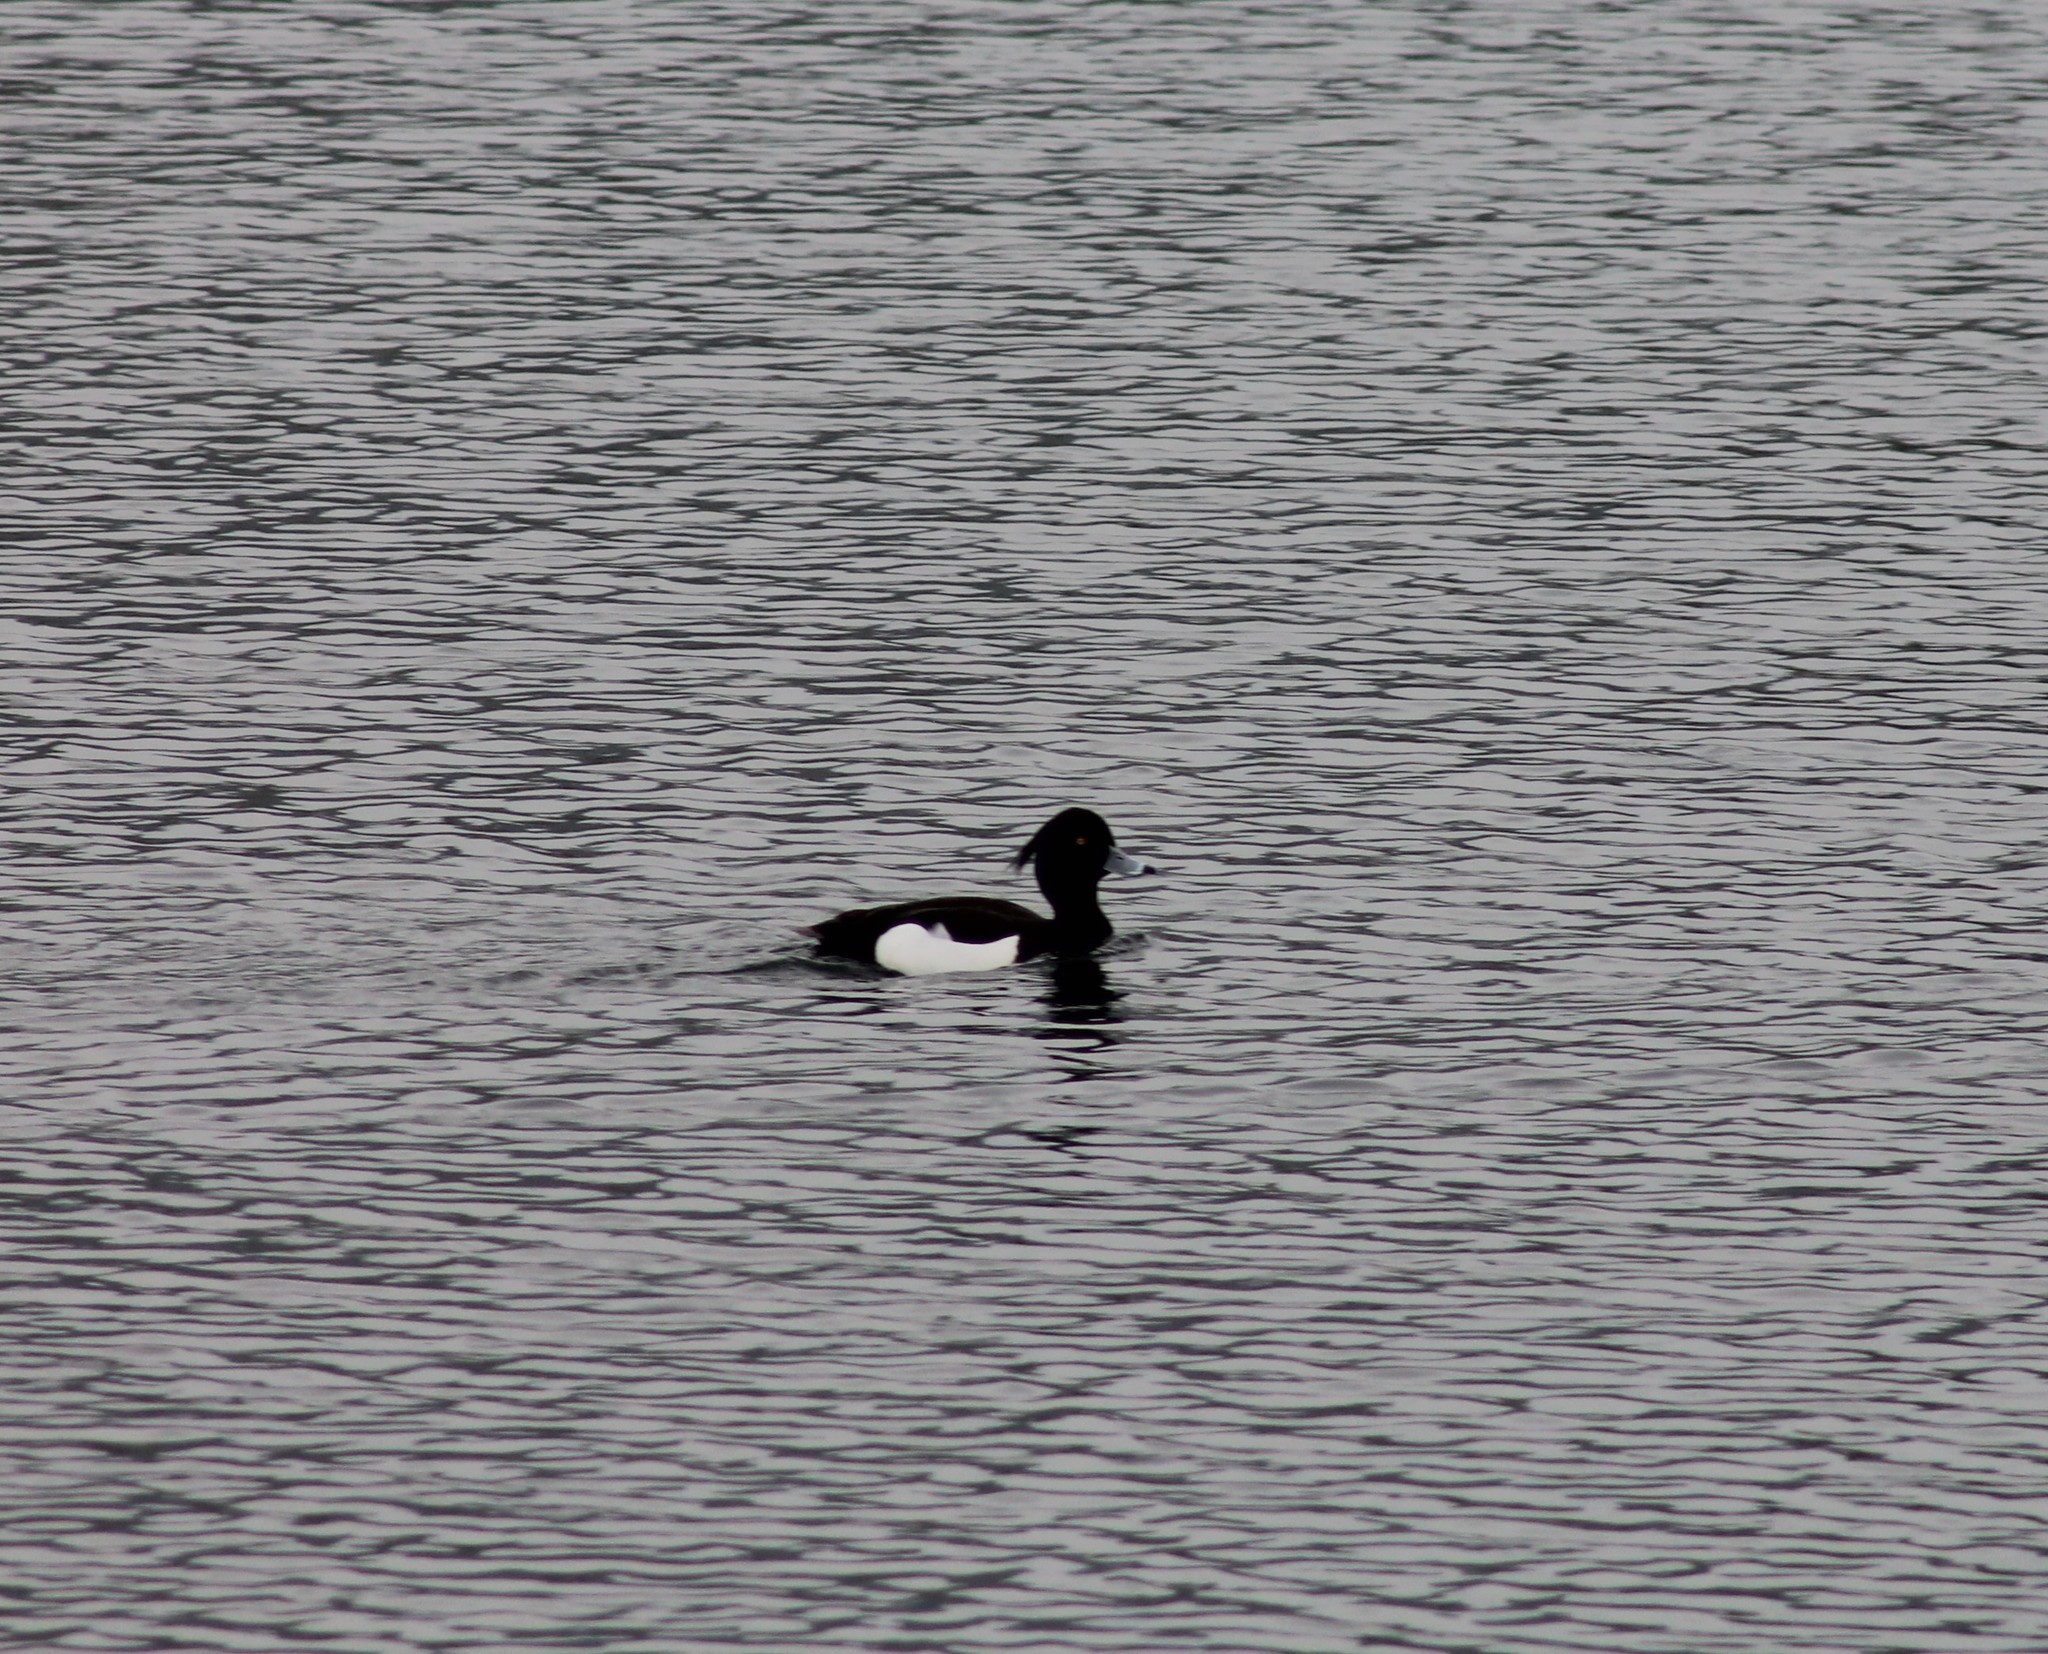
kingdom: Animalia
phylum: Chordata
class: Aves
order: Anseriformes
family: Anatidae
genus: Aythya
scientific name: Aythya fuligula
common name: Tufted duck
